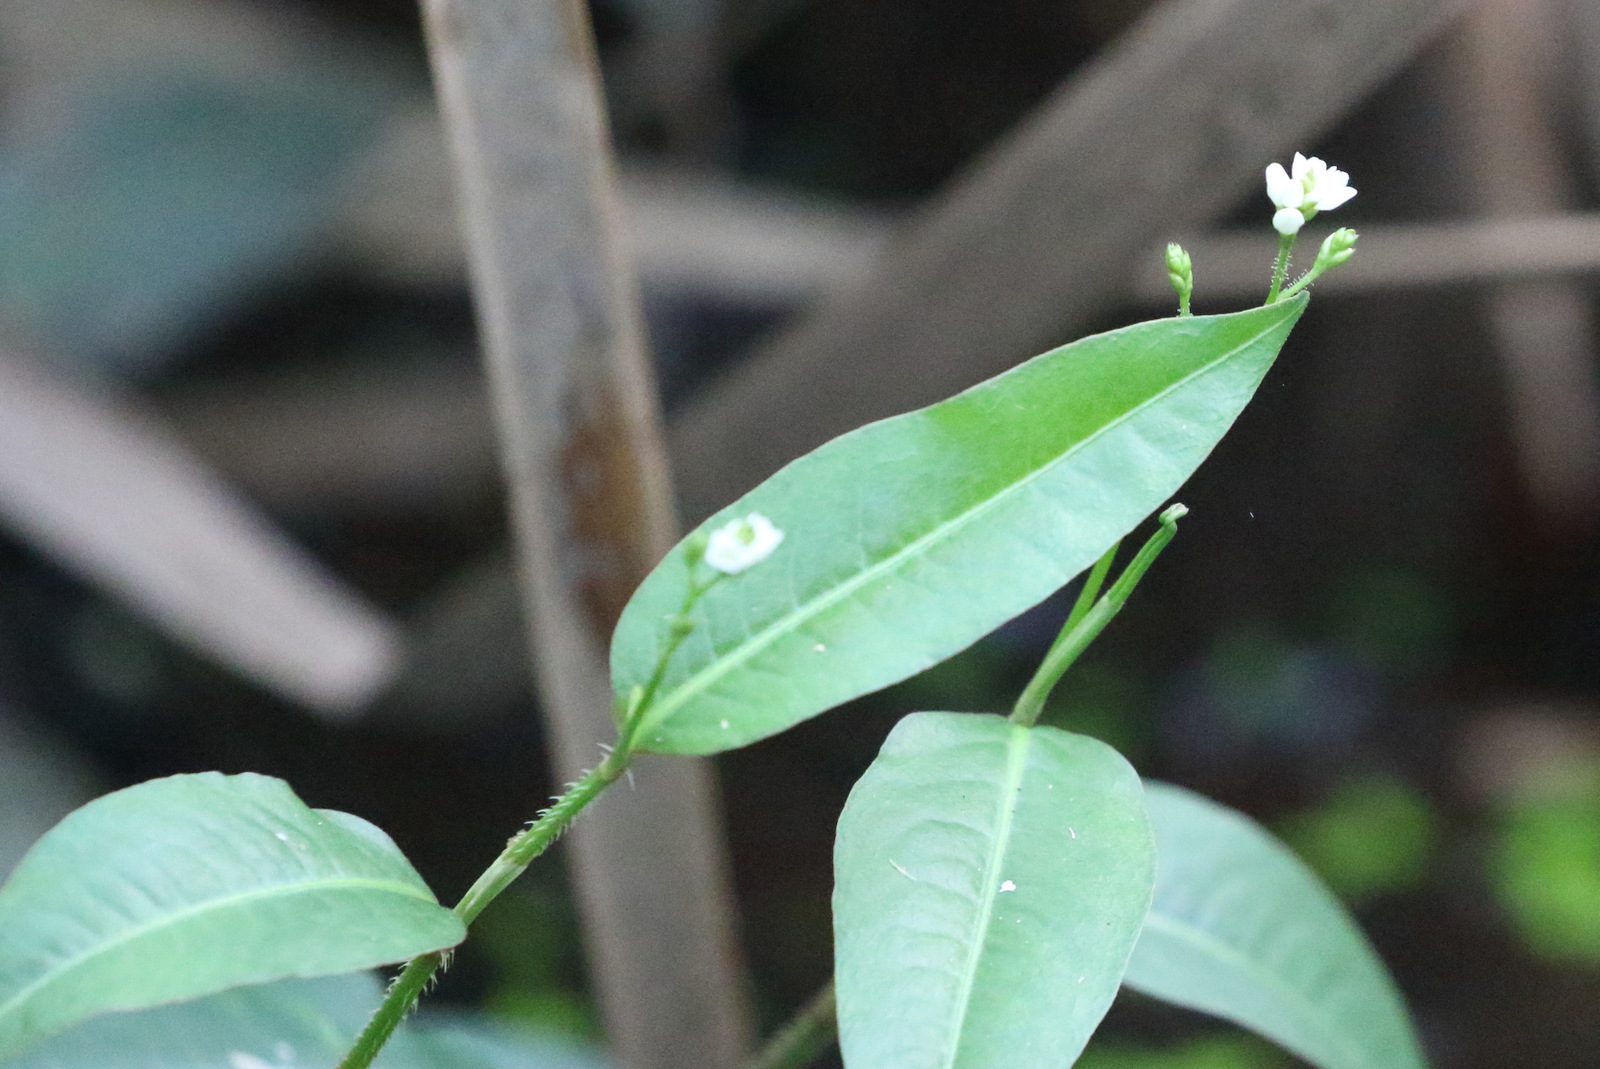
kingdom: Plantae
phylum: Tracheophyta
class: Magnoliopsida
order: Caryophyllales
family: Polygonaceae
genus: Persicaria
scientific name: Persicaria dichotoma
